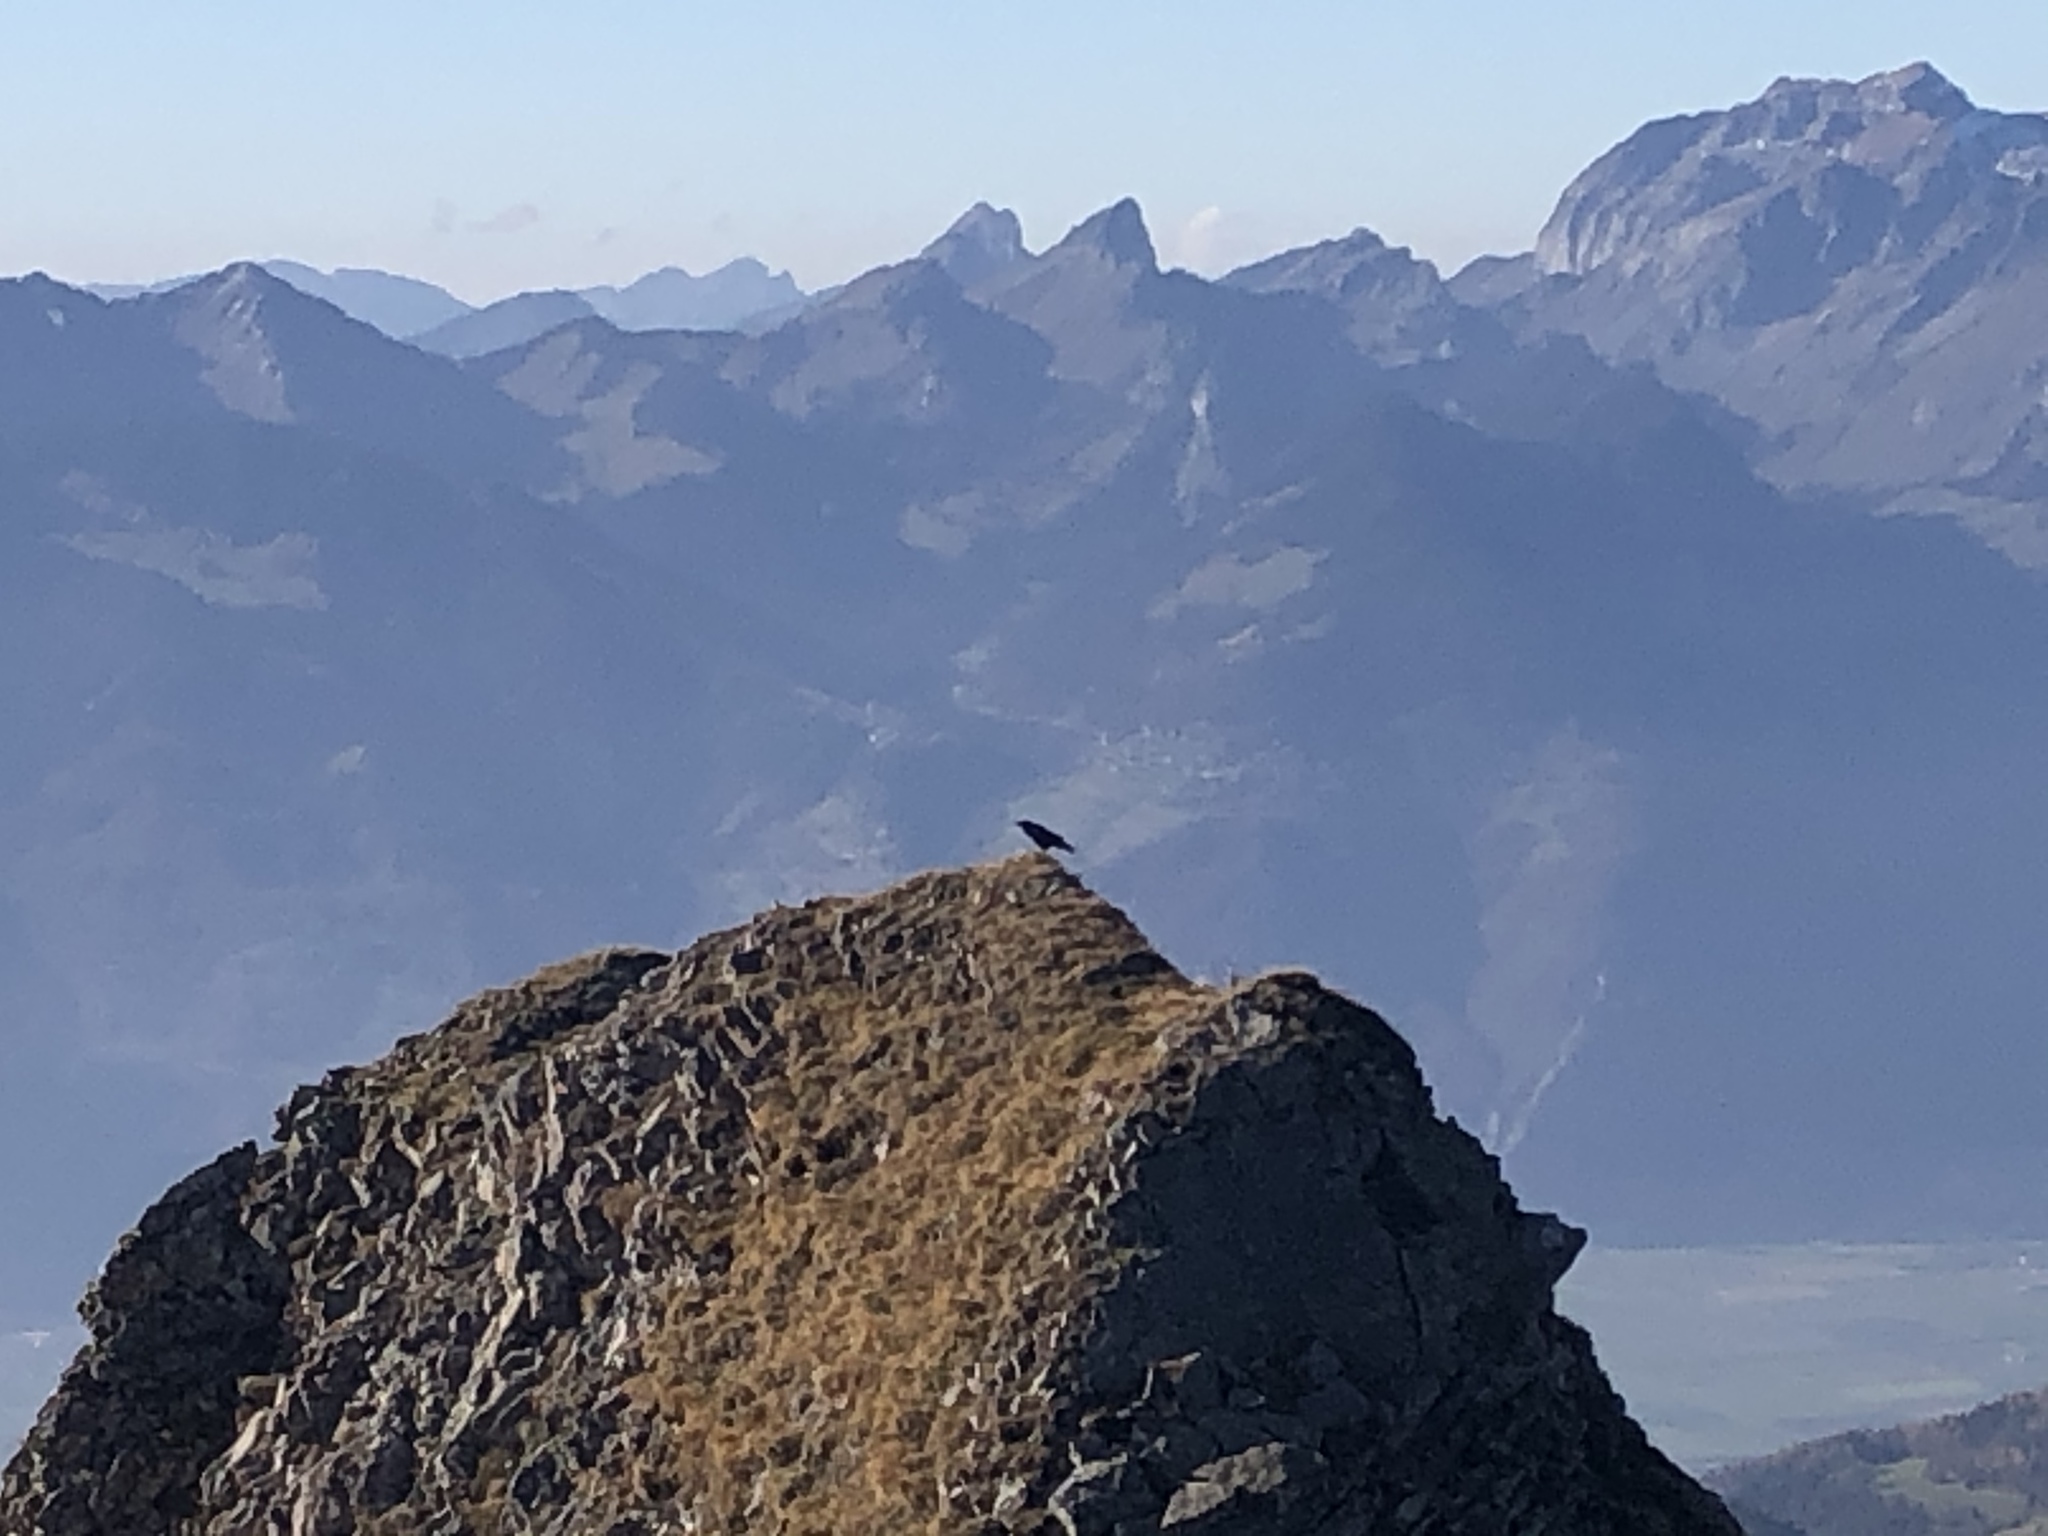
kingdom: Animalia
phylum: Chordata
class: Aves
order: Passeriformes
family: Corvidae
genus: Corvus
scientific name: Corvus corax
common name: Common raven
